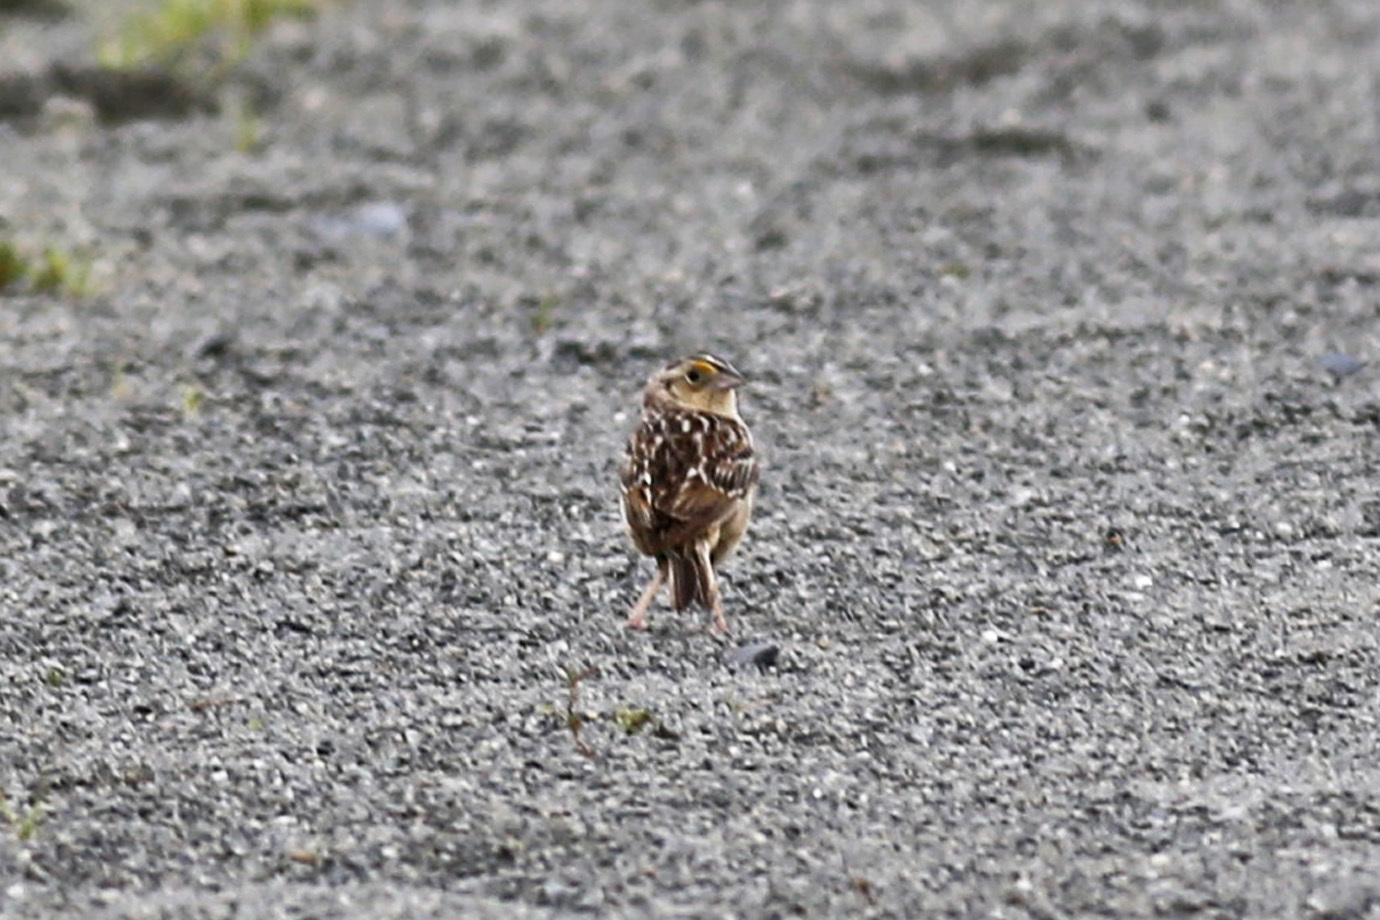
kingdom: Animalia
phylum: Chordata
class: Aves
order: Passeriformes
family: Passerellidae
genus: Ammodramus
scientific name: Ammodramus savannarum
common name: Grasshopper sparrow
